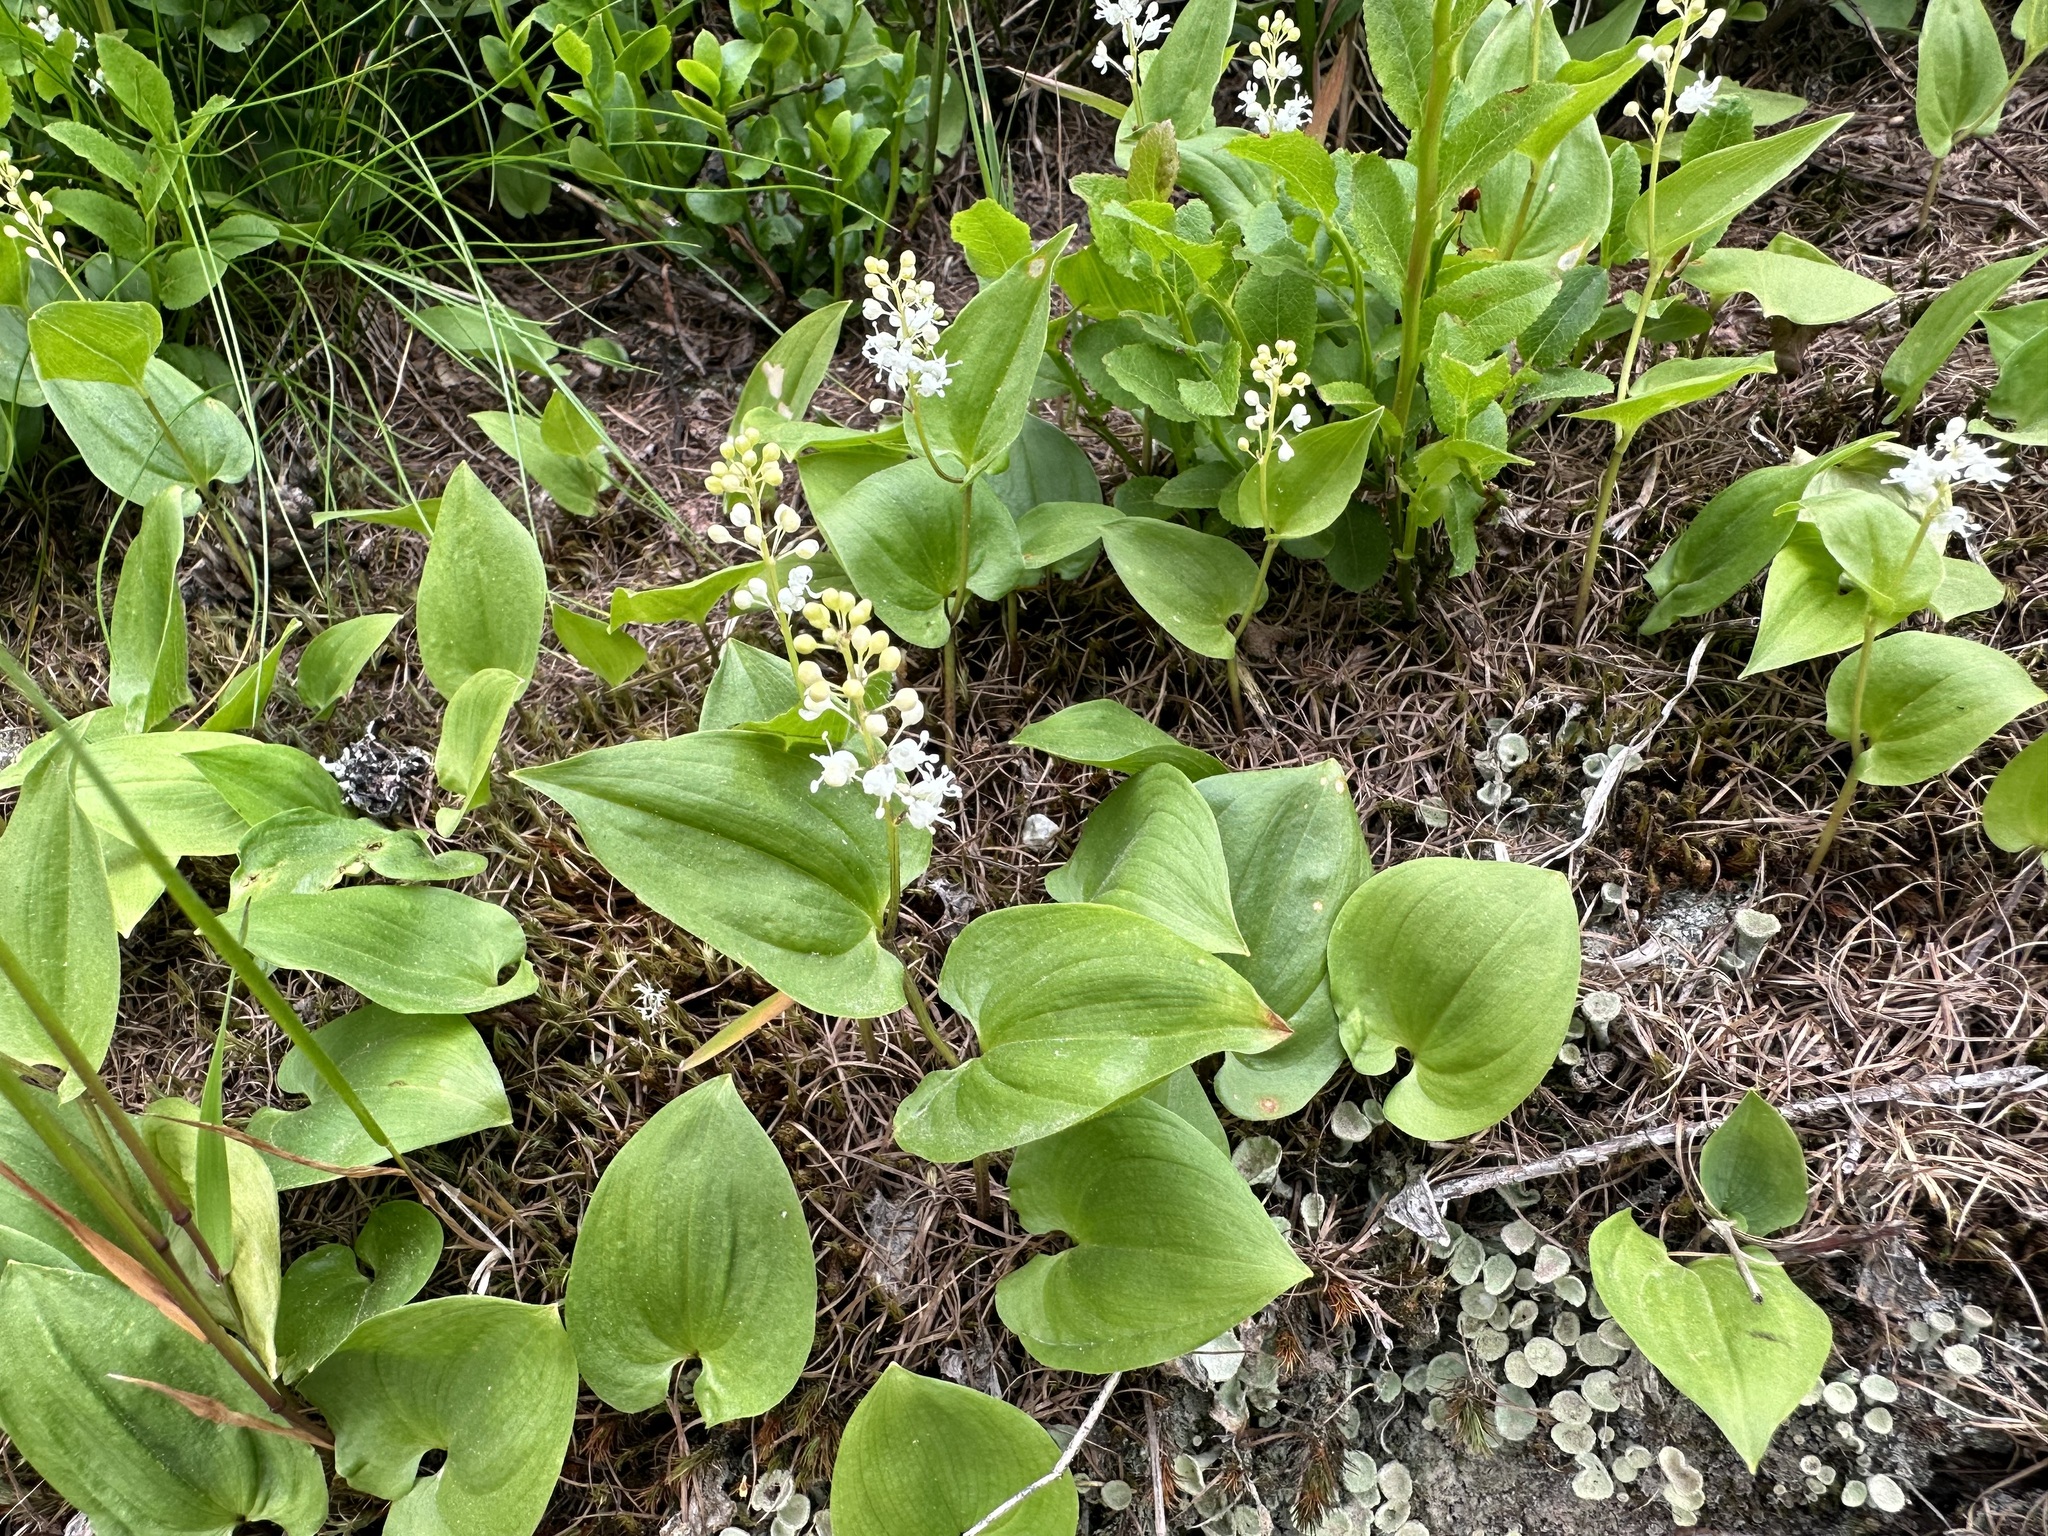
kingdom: Plantae
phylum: Tracheophyta
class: Liliopsida
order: Asparagales
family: Asparagaceae
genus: Maianthemum
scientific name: Maianthemum bifolium
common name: May lily
